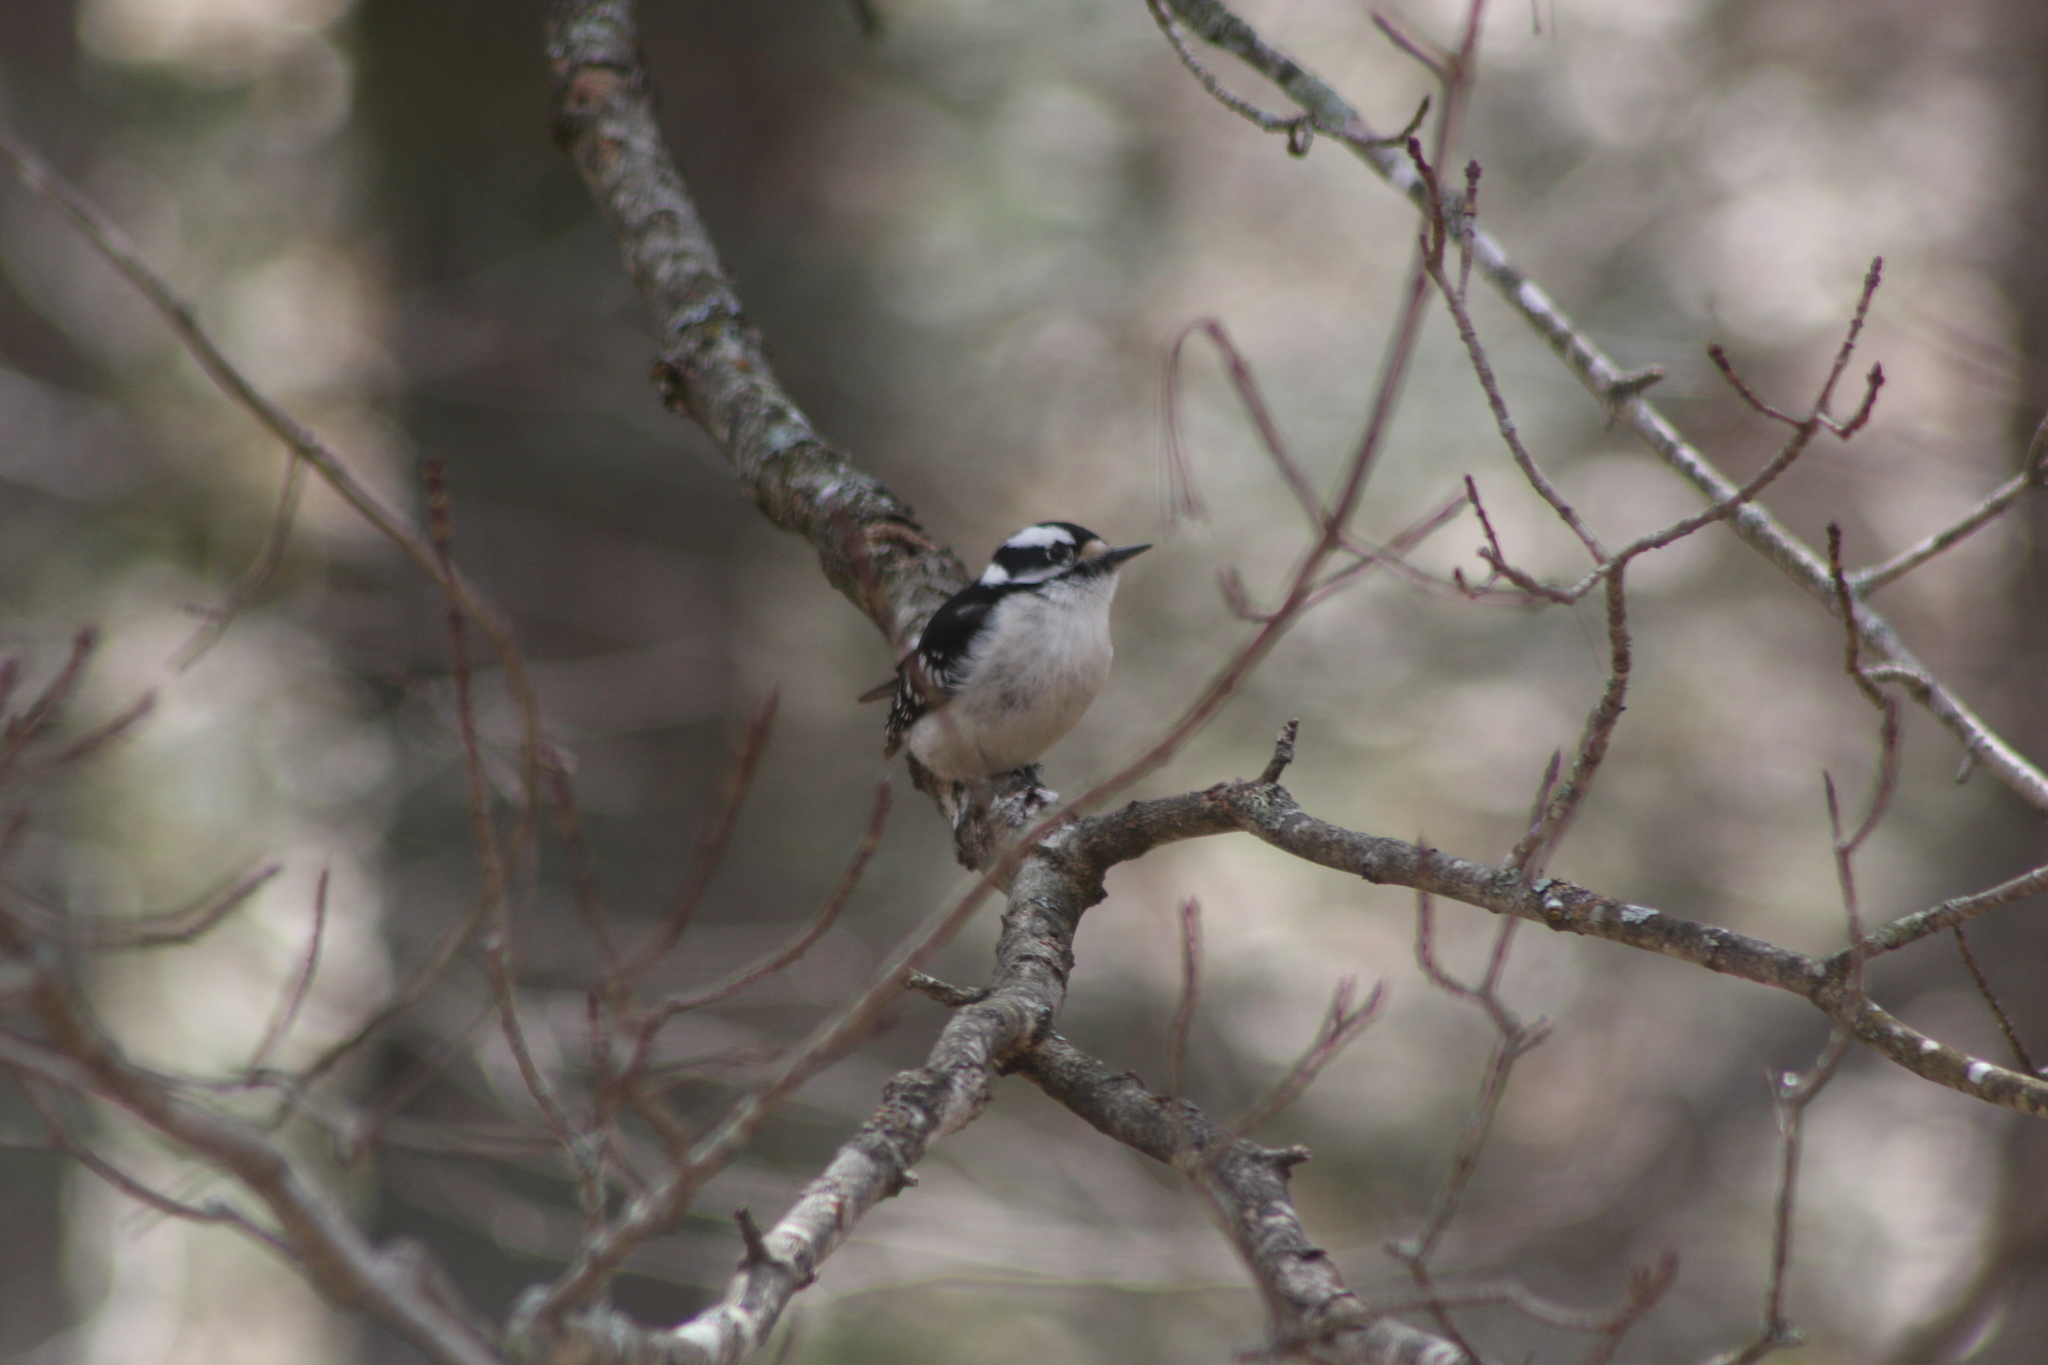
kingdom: Animalia
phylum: Chordata
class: Aves
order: Piciformes
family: Picidae
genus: Dryobates
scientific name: Dryobates pubescens
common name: Downy woodpecker
